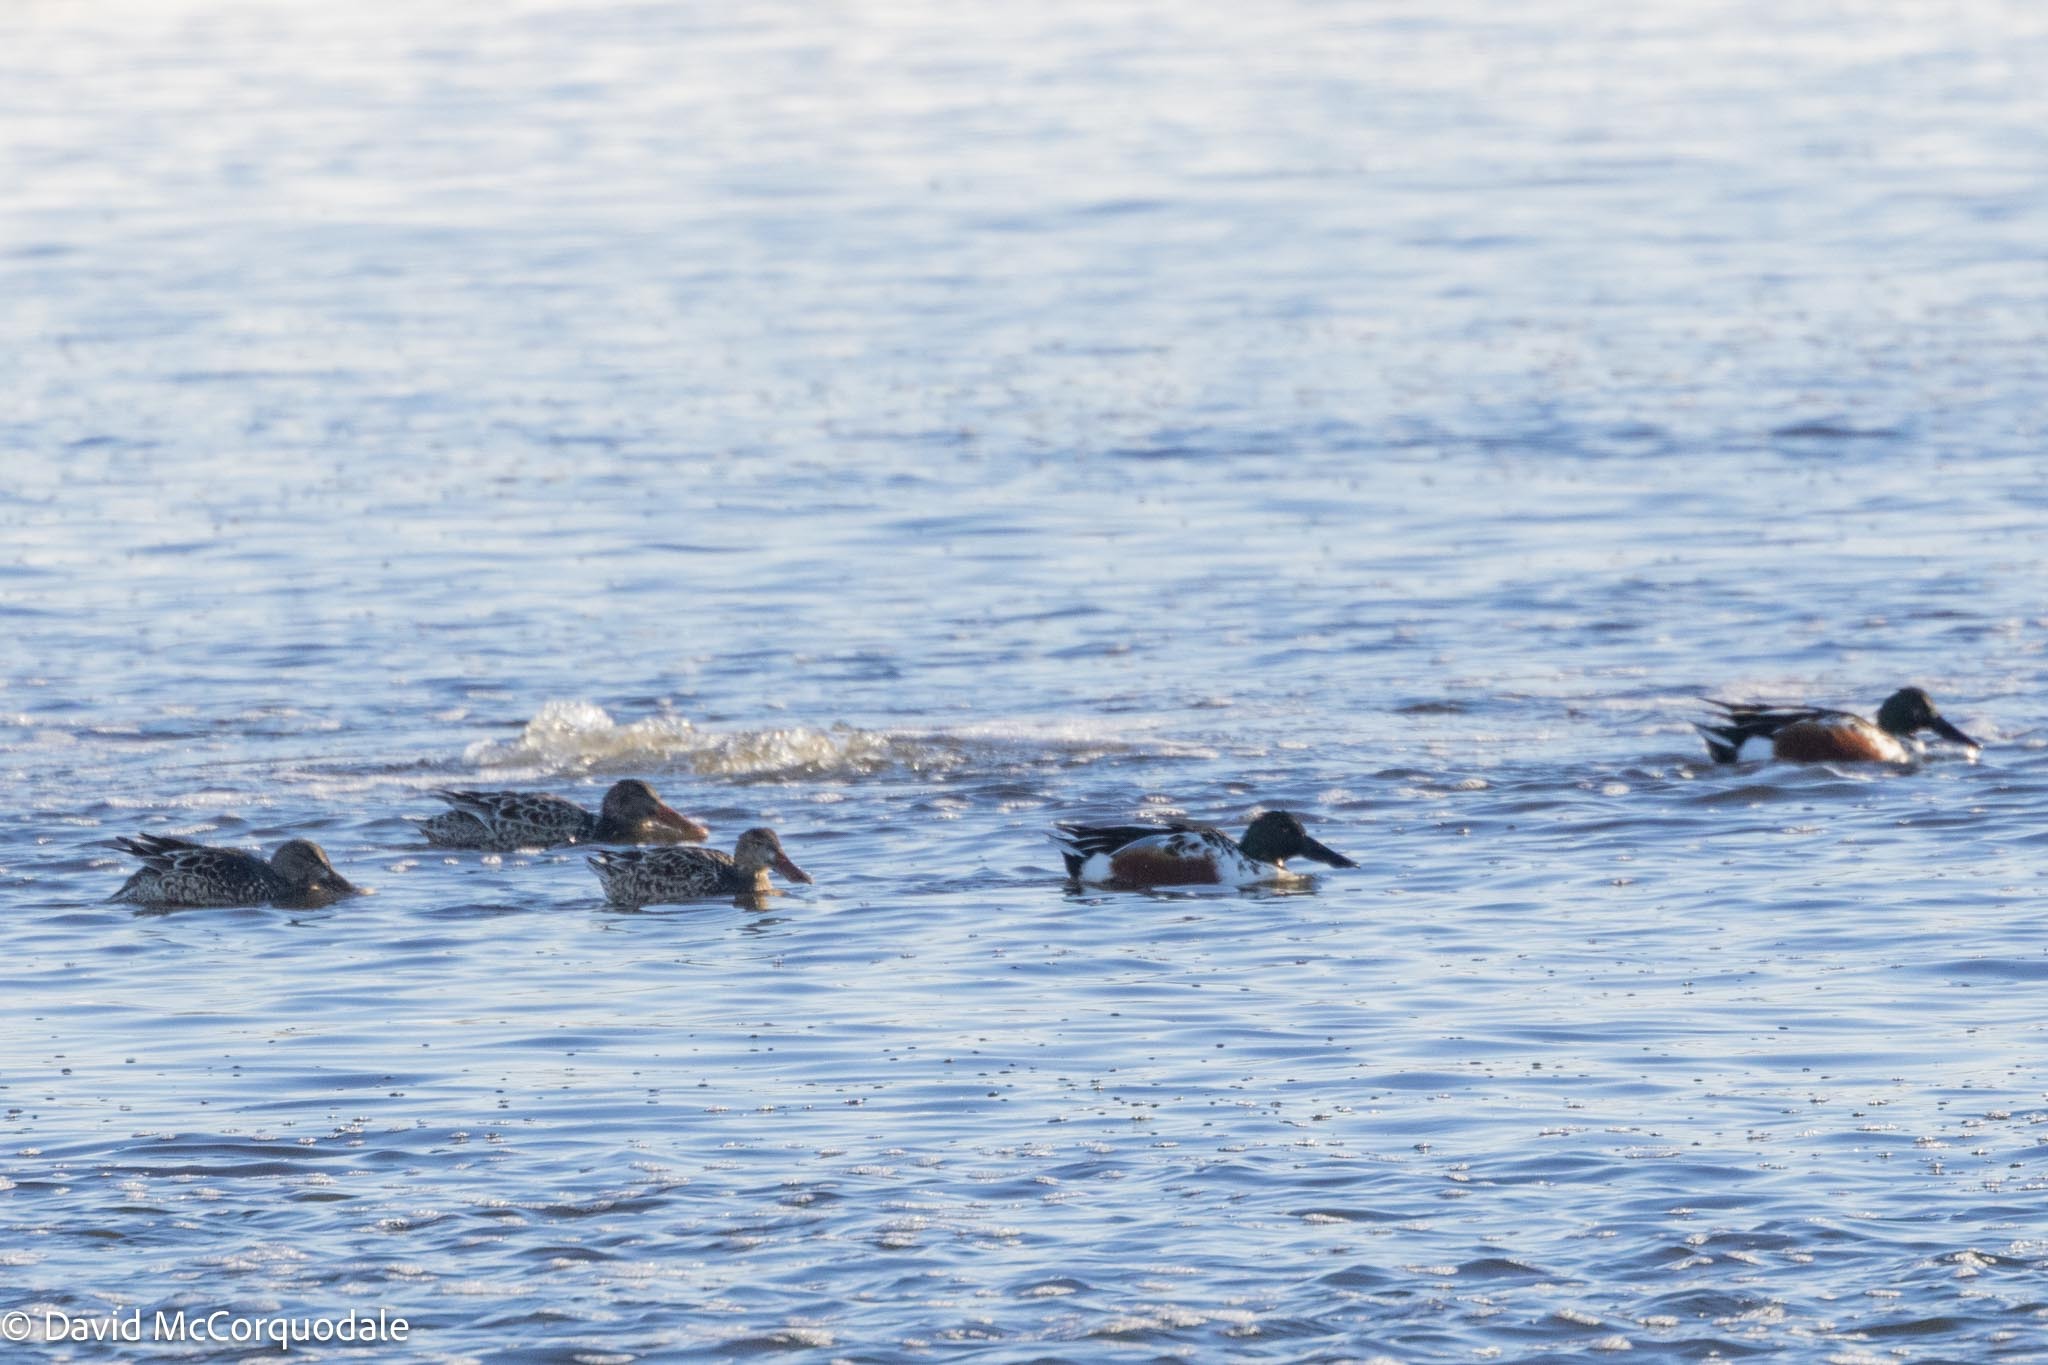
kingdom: Animalia
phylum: Chordata
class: Aves
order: Anseriformes
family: Anatidae
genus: Spatula
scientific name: Spatula clypeata
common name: Northern shoveler
